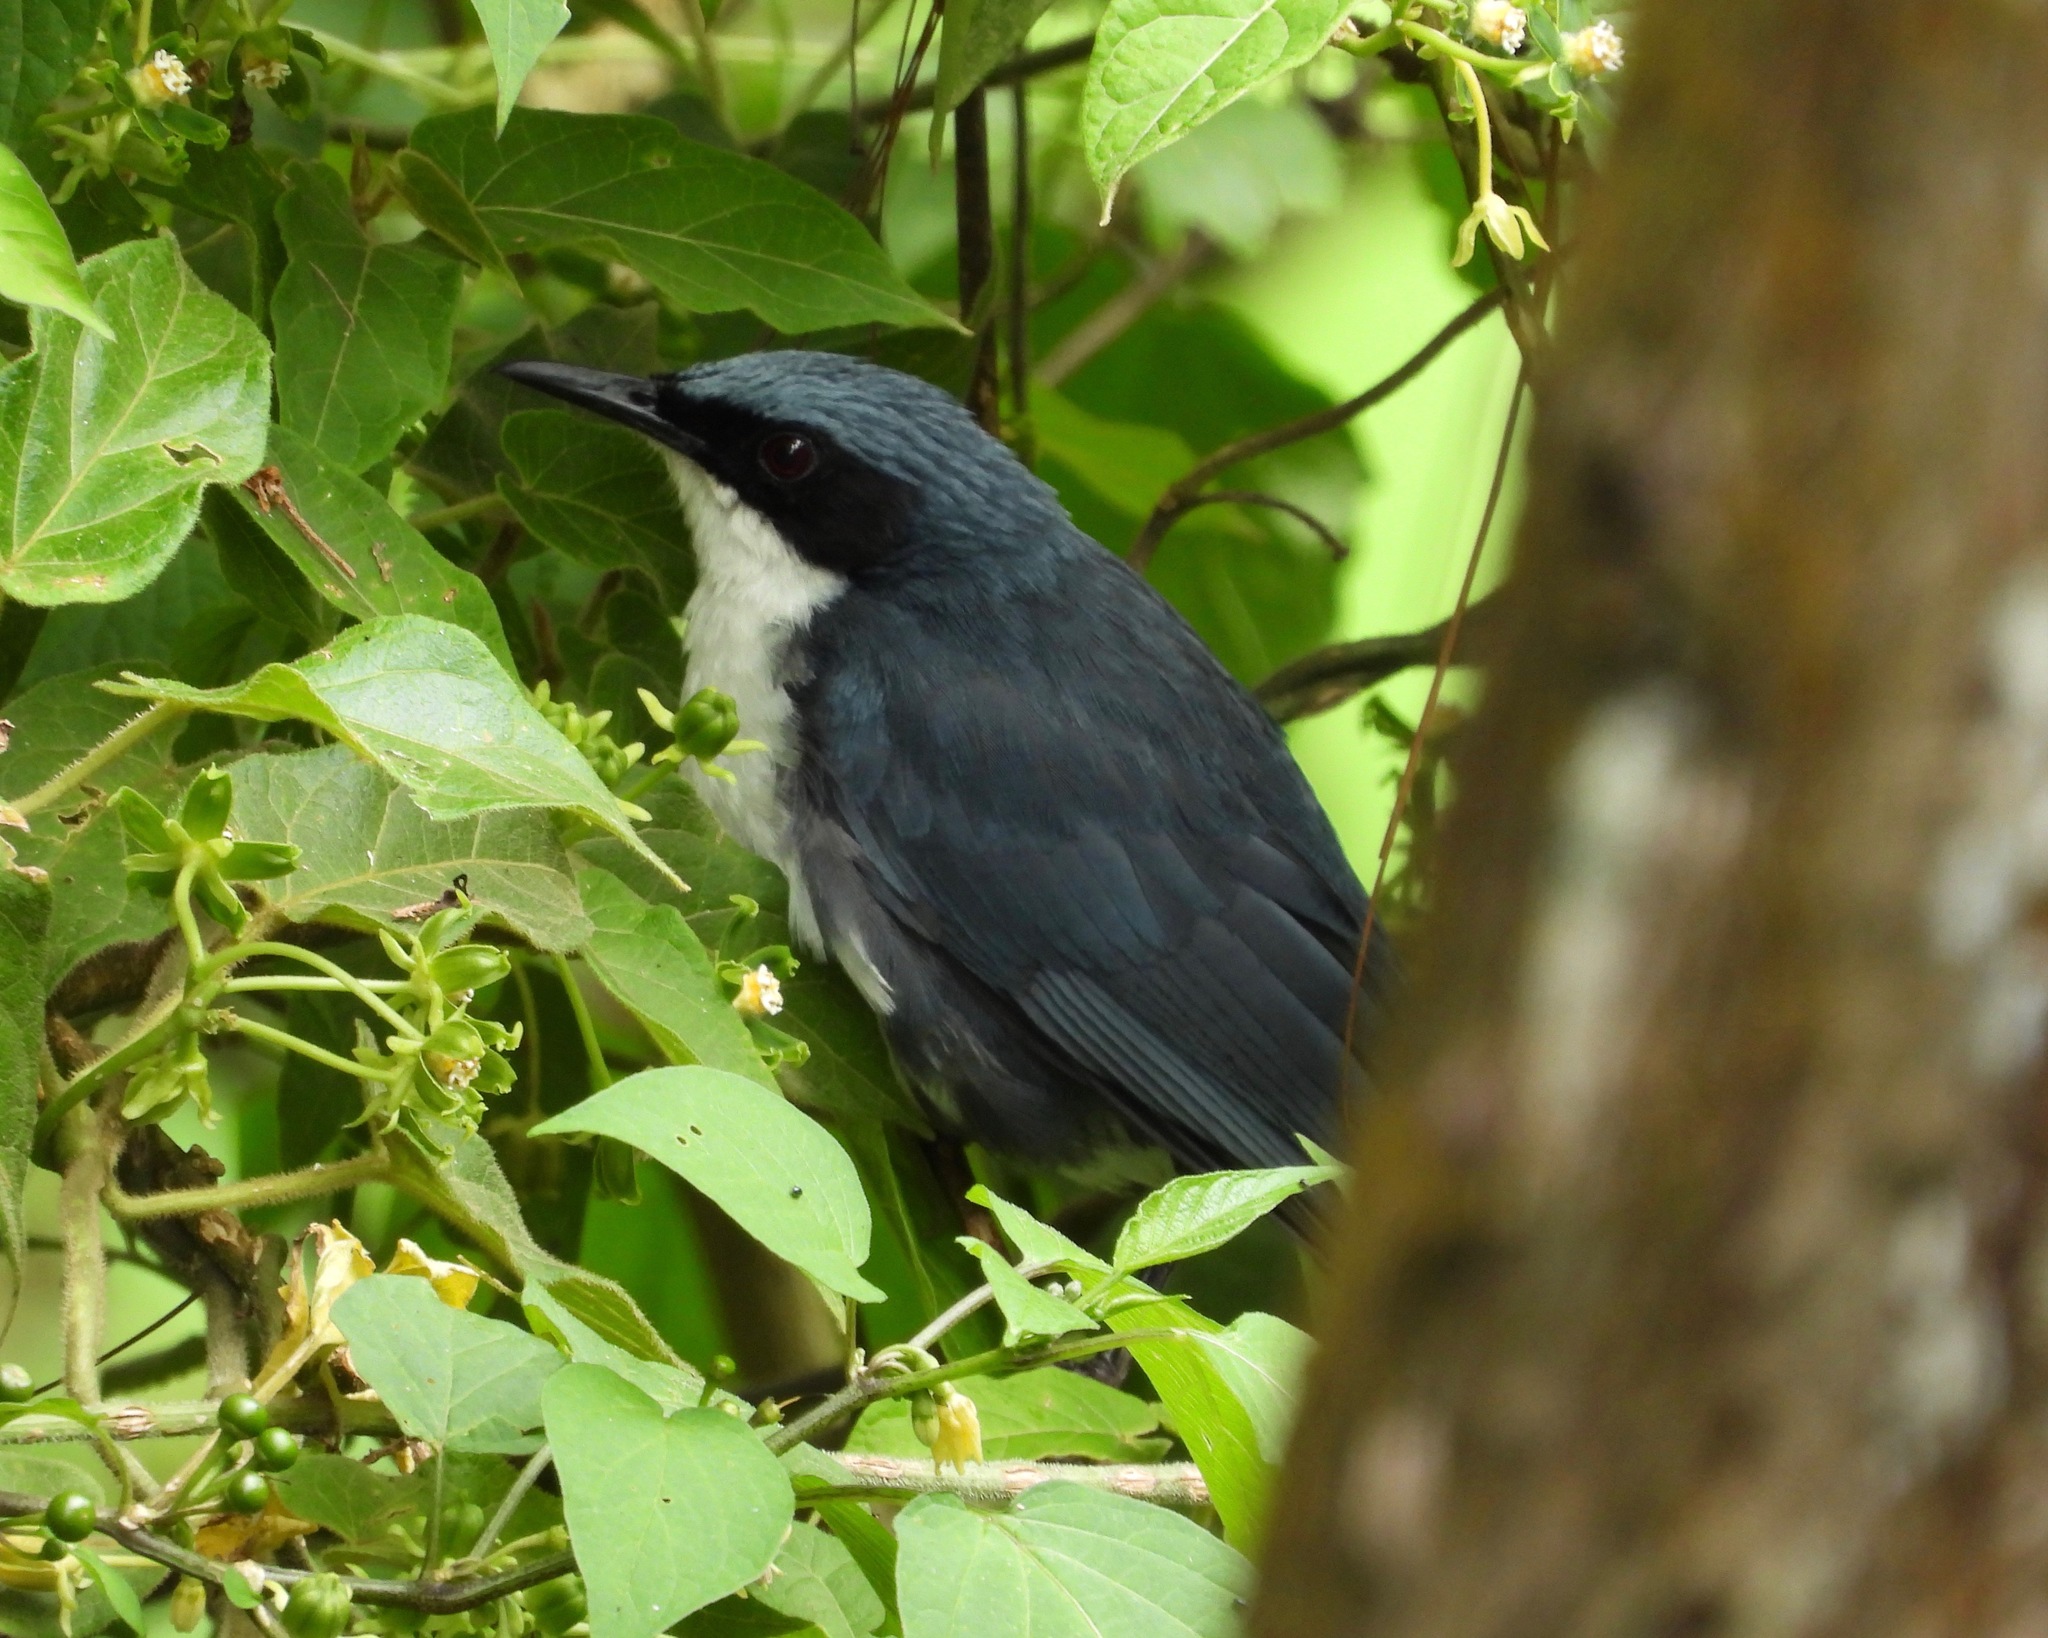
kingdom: Animalia
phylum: Chordata
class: Aves
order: Passeriformes
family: Mimidae
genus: Melanotis
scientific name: Melanotis hypoleucus
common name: Blue-and-white mockingbird
